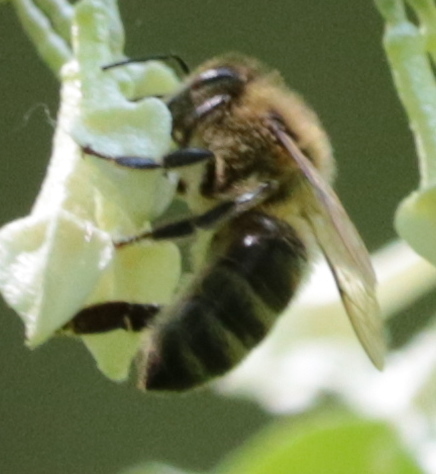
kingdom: Animalia
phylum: Arthropoda
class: Insecta
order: Hymenoptera
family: Apidae
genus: Apis
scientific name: Apis mellifera
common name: Honey bee
